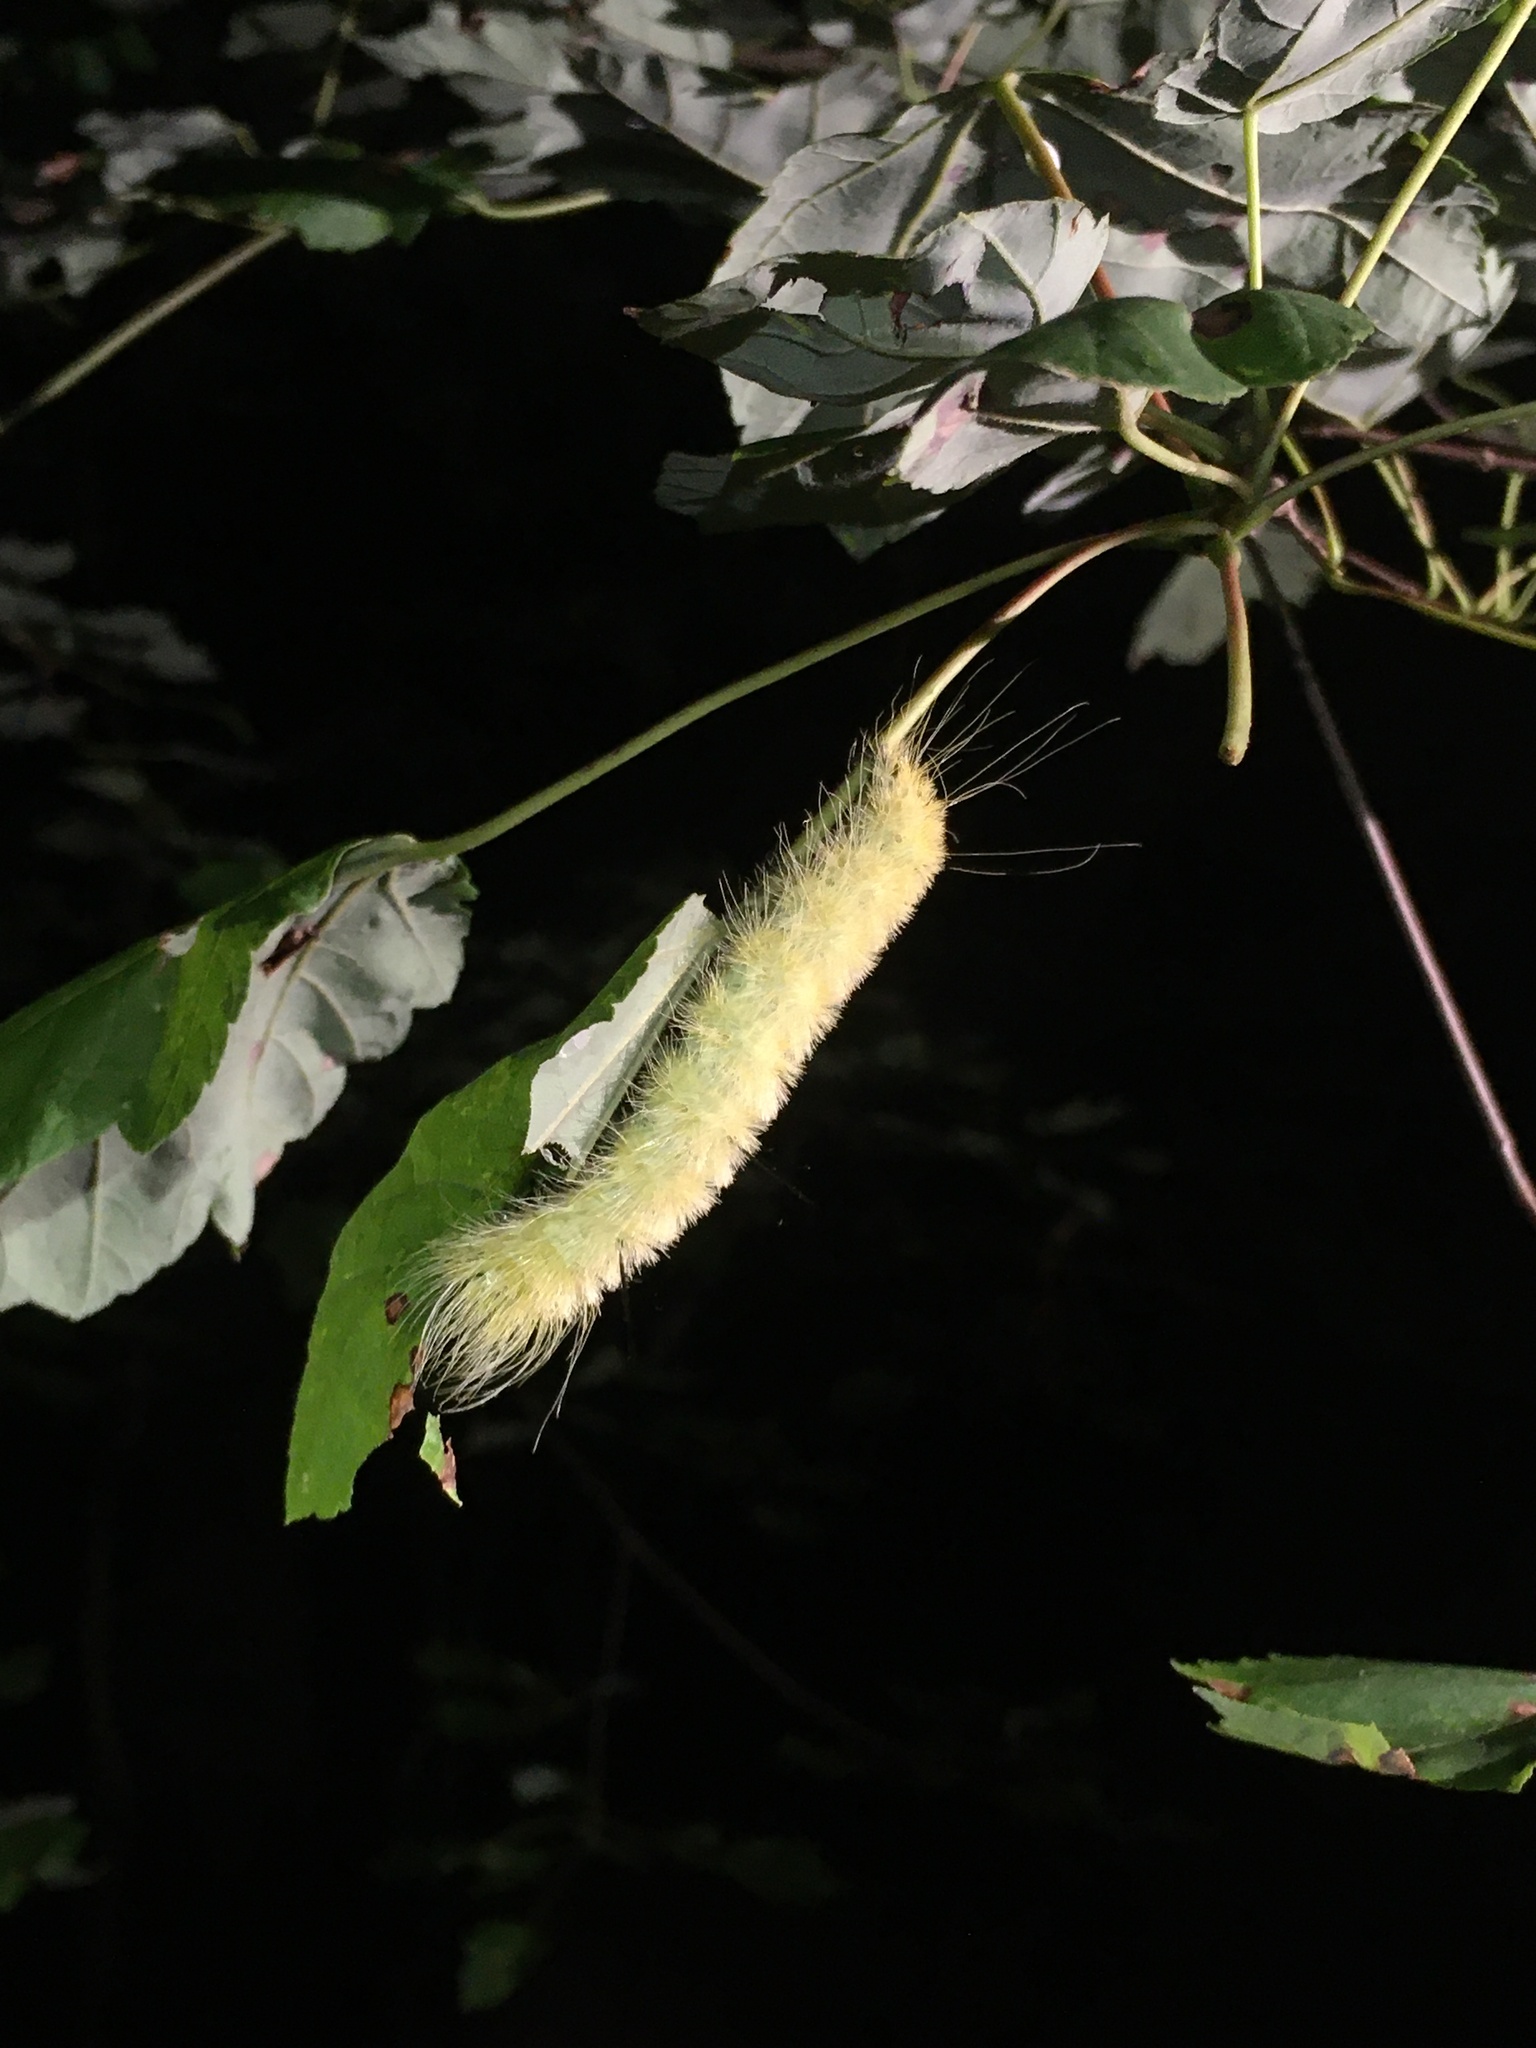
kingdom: Animalia
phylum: Arthropoda
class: Insecta
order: Lepidoptera
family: Noctuidae
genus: Acronicta
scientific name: Acronicta americana
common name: American dagger
